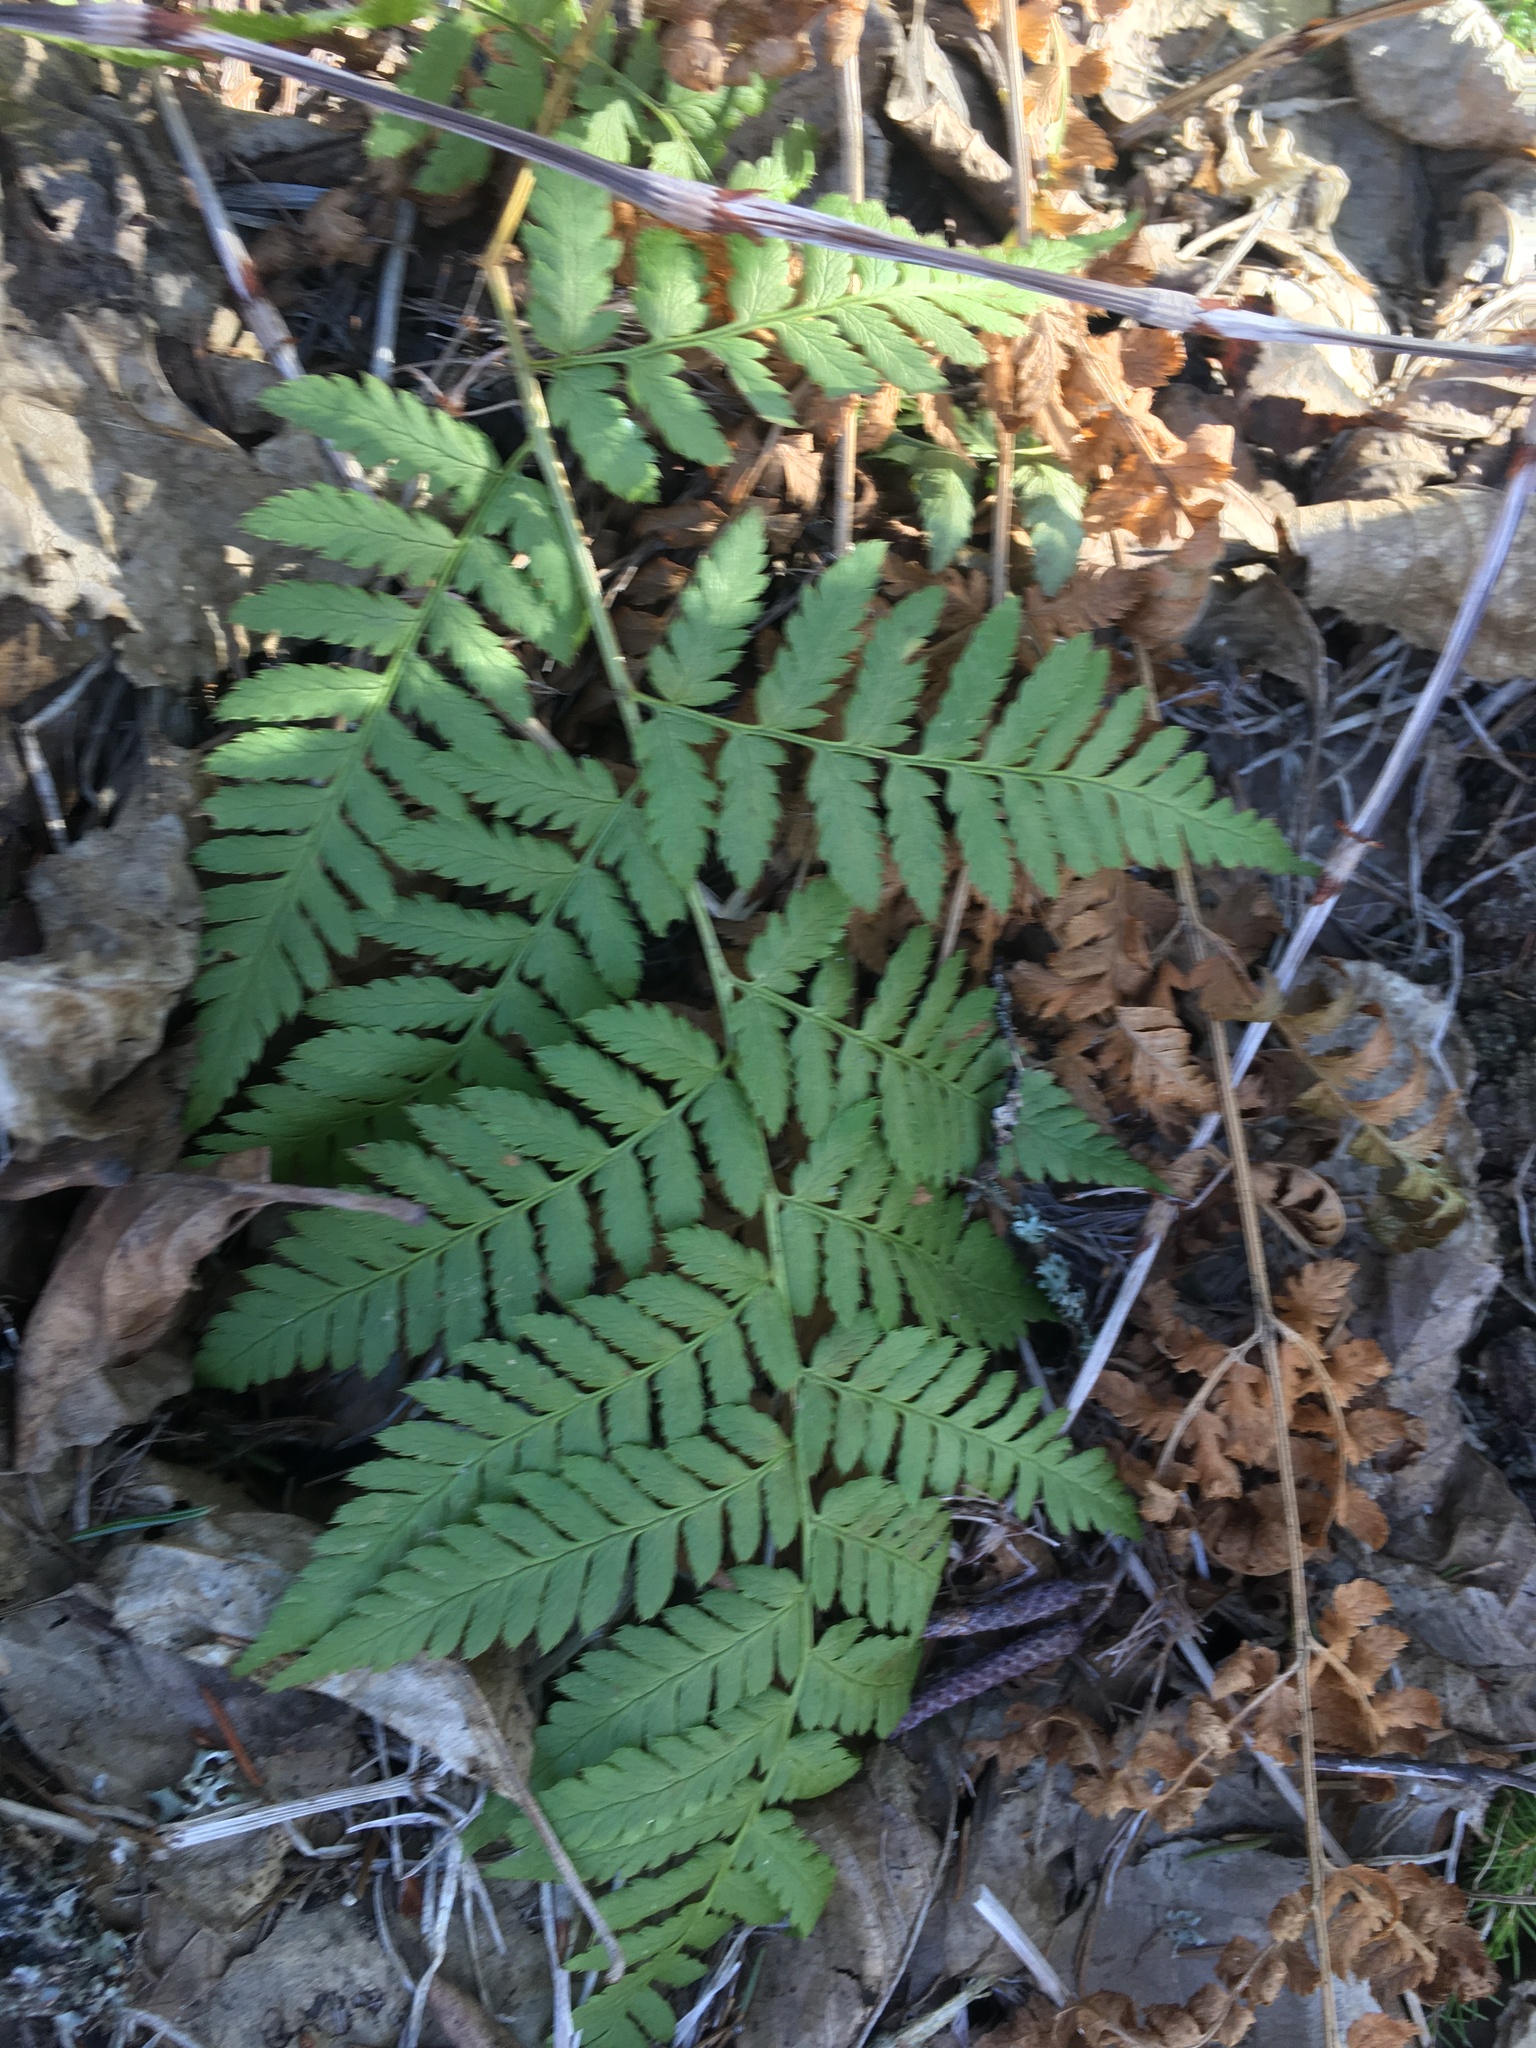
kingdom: Plantae
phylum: Tracheophyta
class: Polypodiopsida
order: Polypodiales
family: Dryopteridaceae
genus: Dryopteris
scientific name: Dryopteris carthusiana
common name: Narrow buckler-fern
